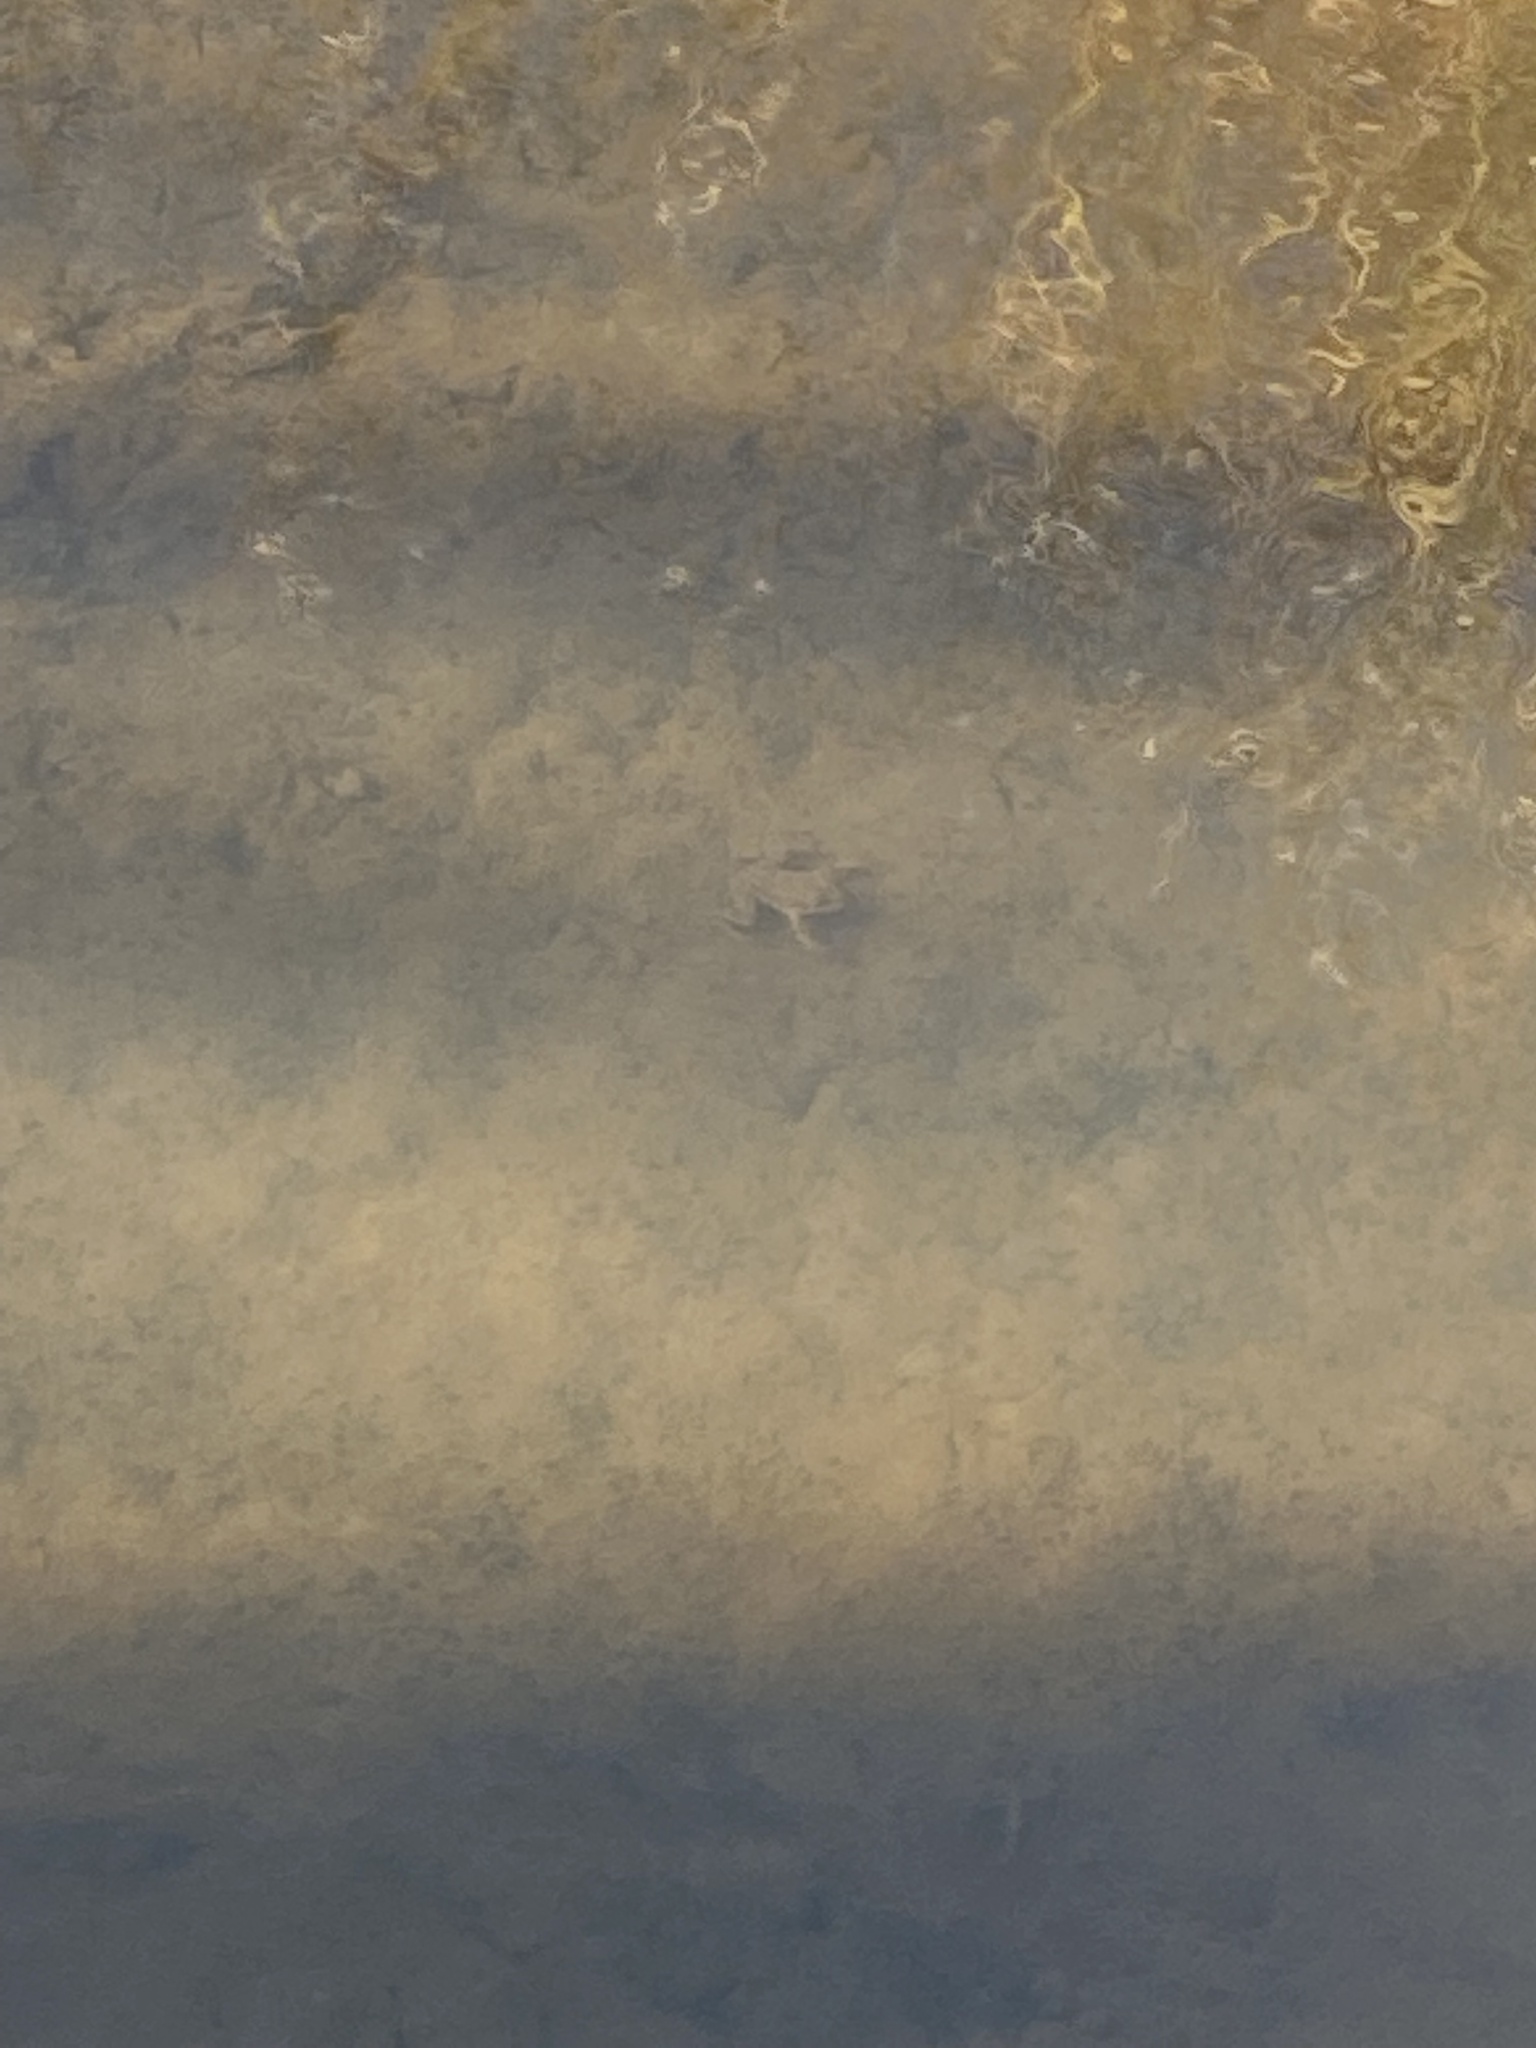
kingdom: Animalia
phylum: Chordata
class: Amphibia
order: Anura
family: Ranidae
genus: Lithobates
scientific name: Lithobates catesbeianus
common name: American bullfrog
